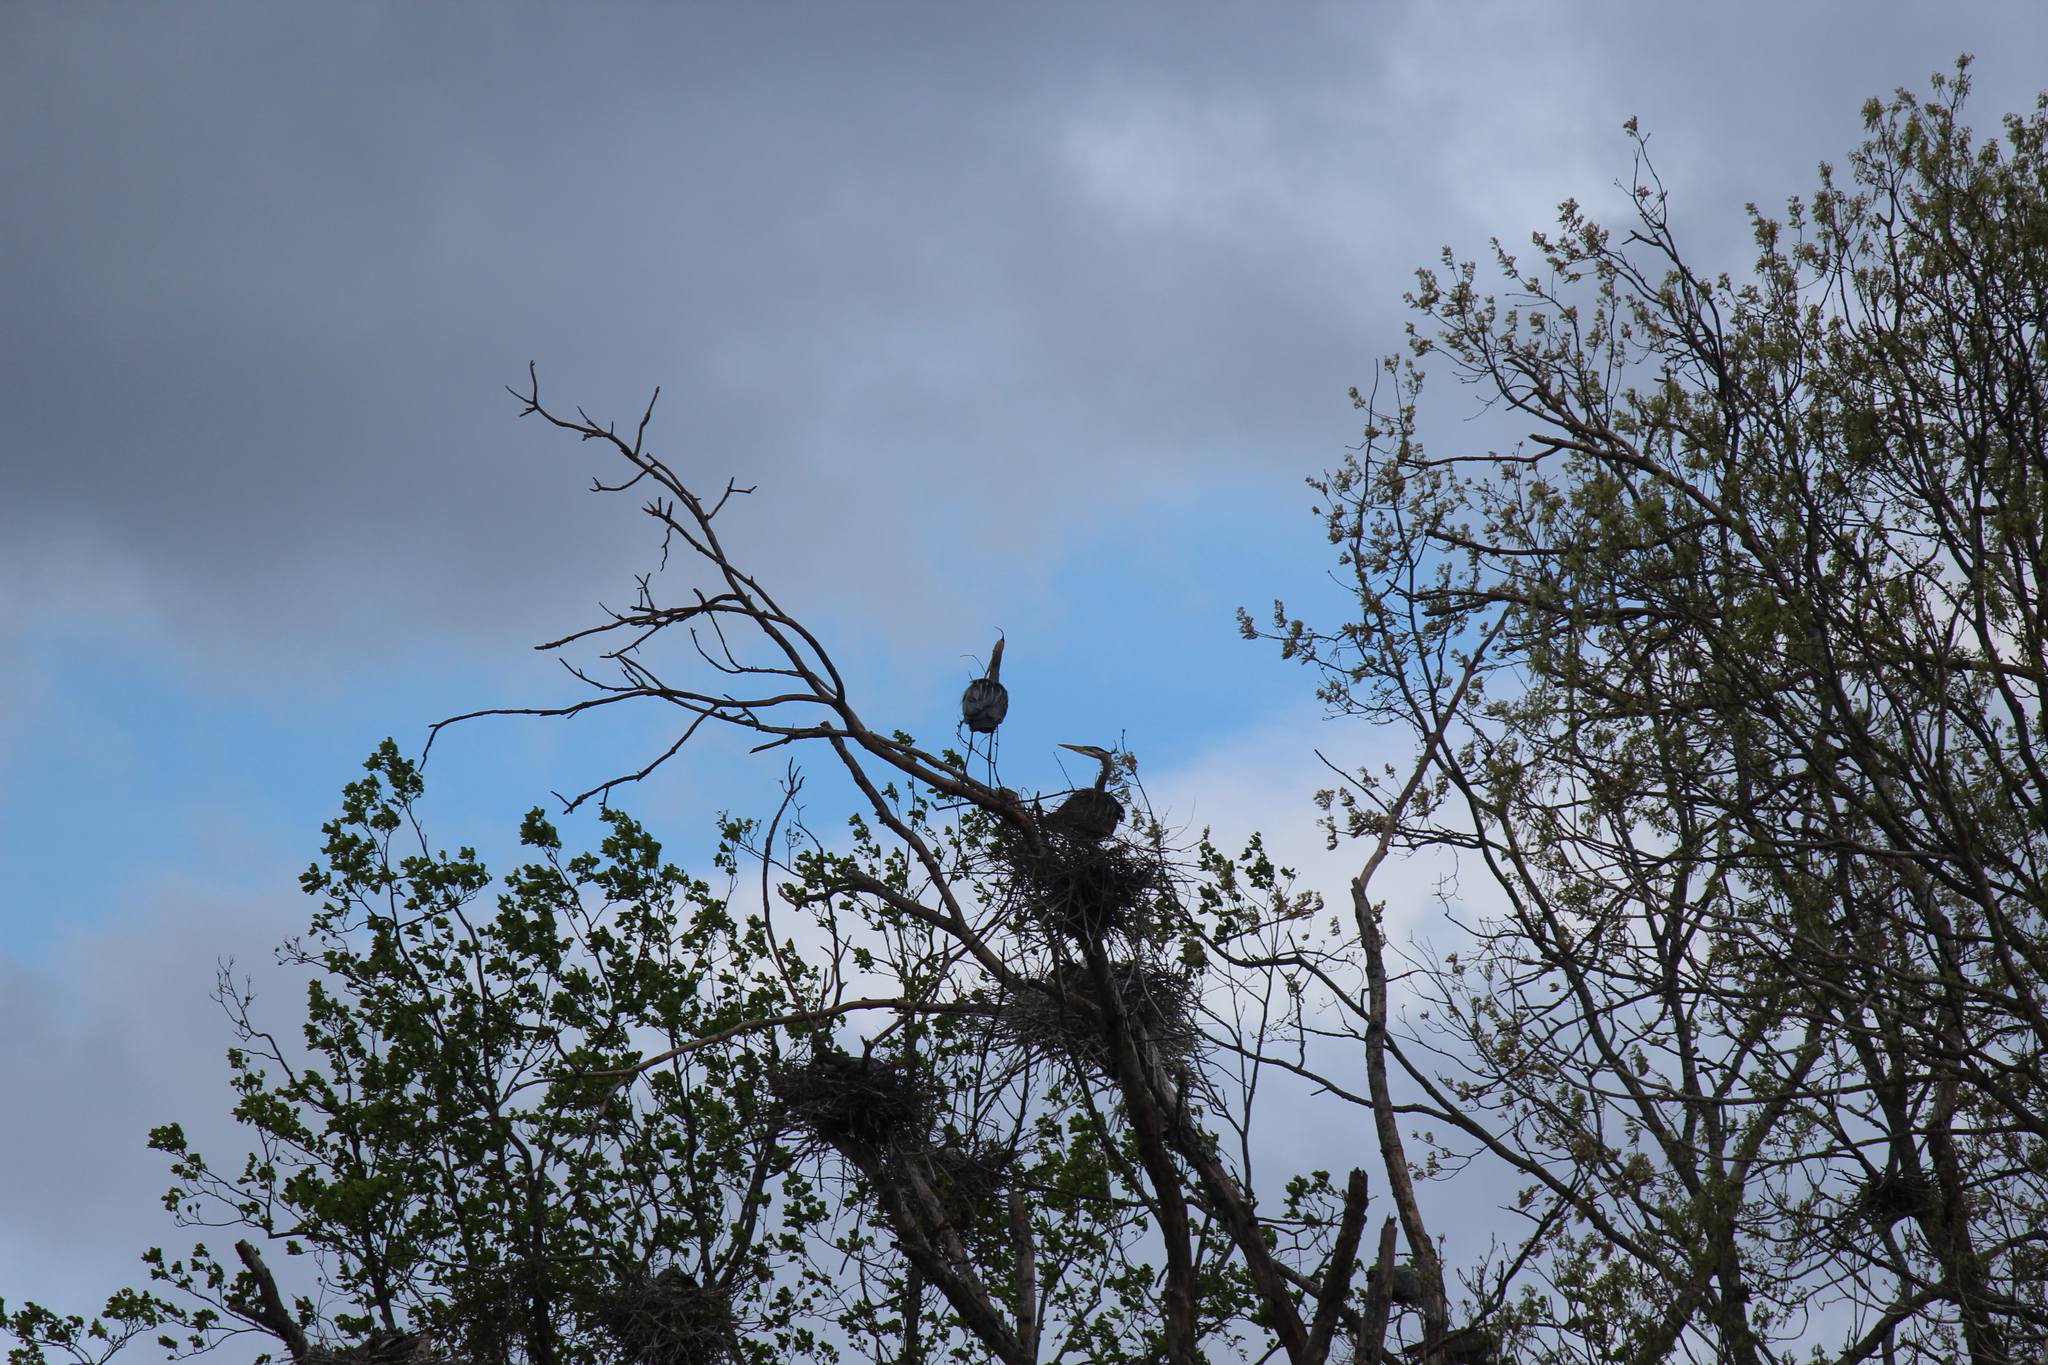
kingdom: Animalia
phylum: Chordata
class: Aves
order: Pelecaniformes
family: Ardeidae
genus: Ardea
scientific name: Ardea herodias
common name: Great blue heron
